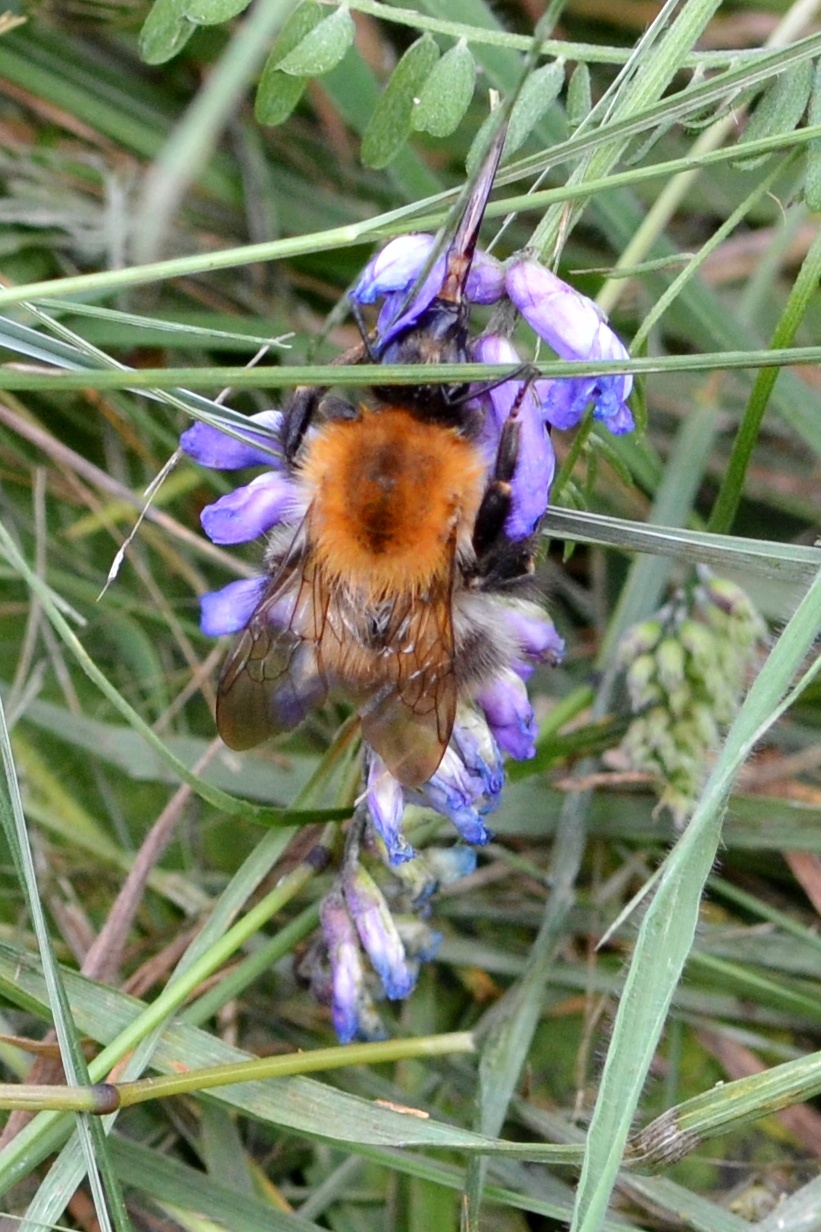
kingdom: Animalia
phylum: Arthropoda
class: Insecta
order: Hymenoptera
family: Apidae
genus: Bombus
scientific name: Bombus pascuorum
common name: Common carder bee
